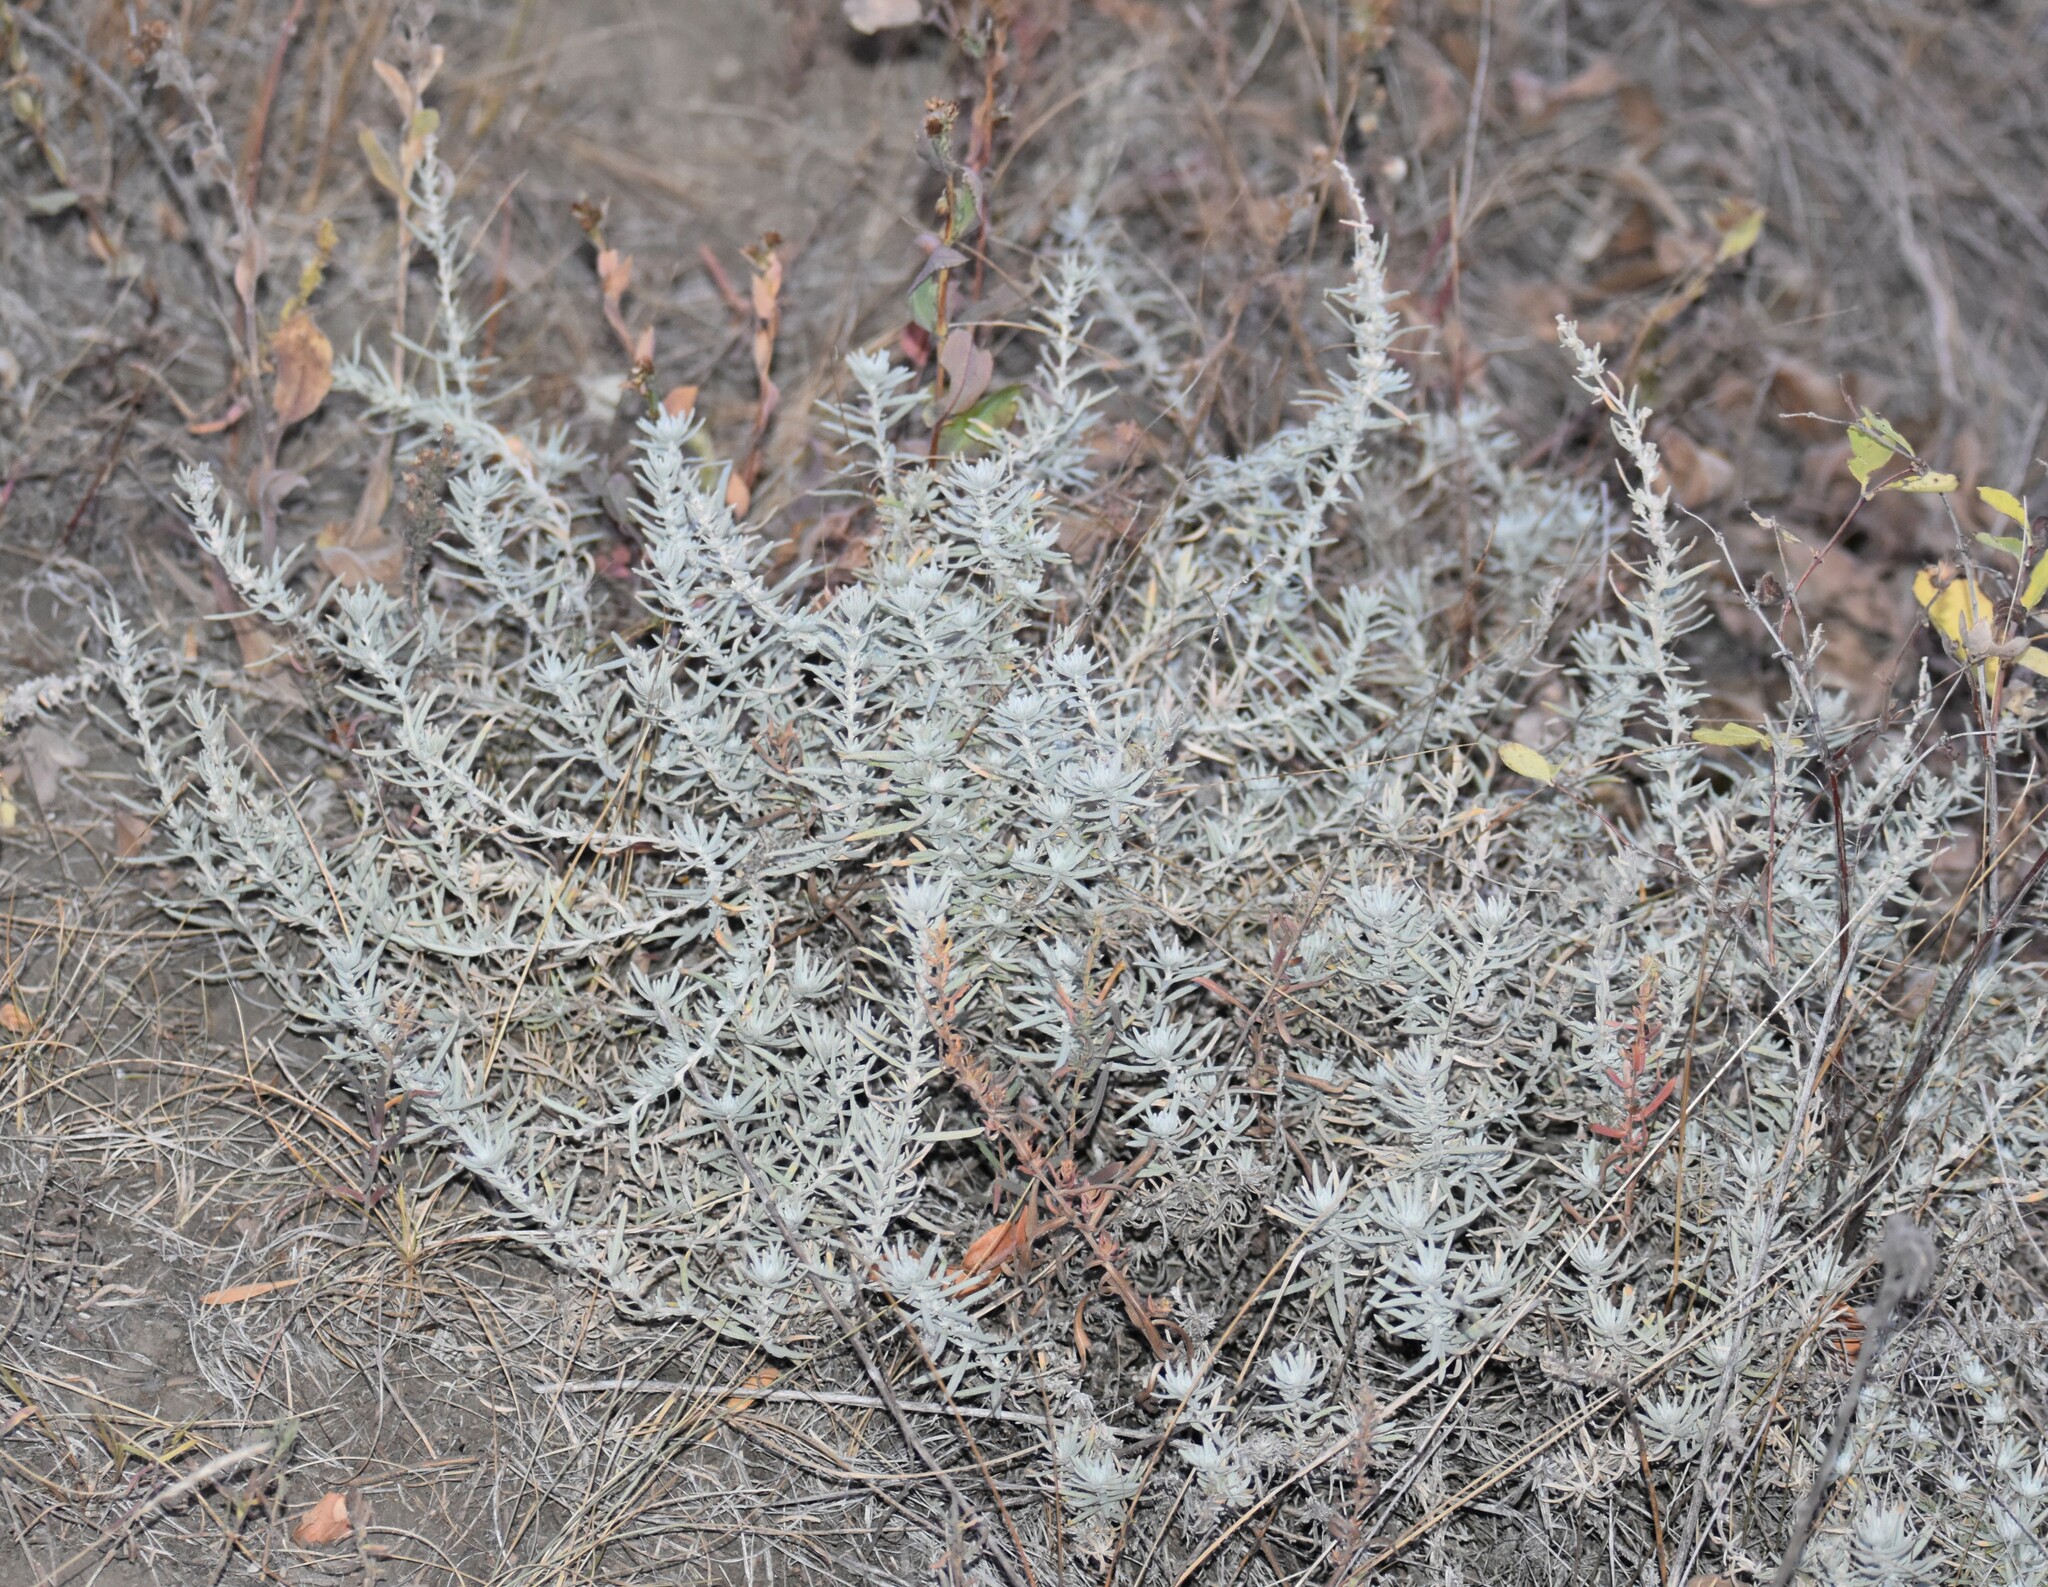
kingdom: Plantae
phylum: Tracheophyta
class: Magnoliopsida
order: Caryophyllales
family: Amaranthaceae
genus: Krascheninnikovia
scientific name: Krascheninnikovia lanata
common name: Winterfat
